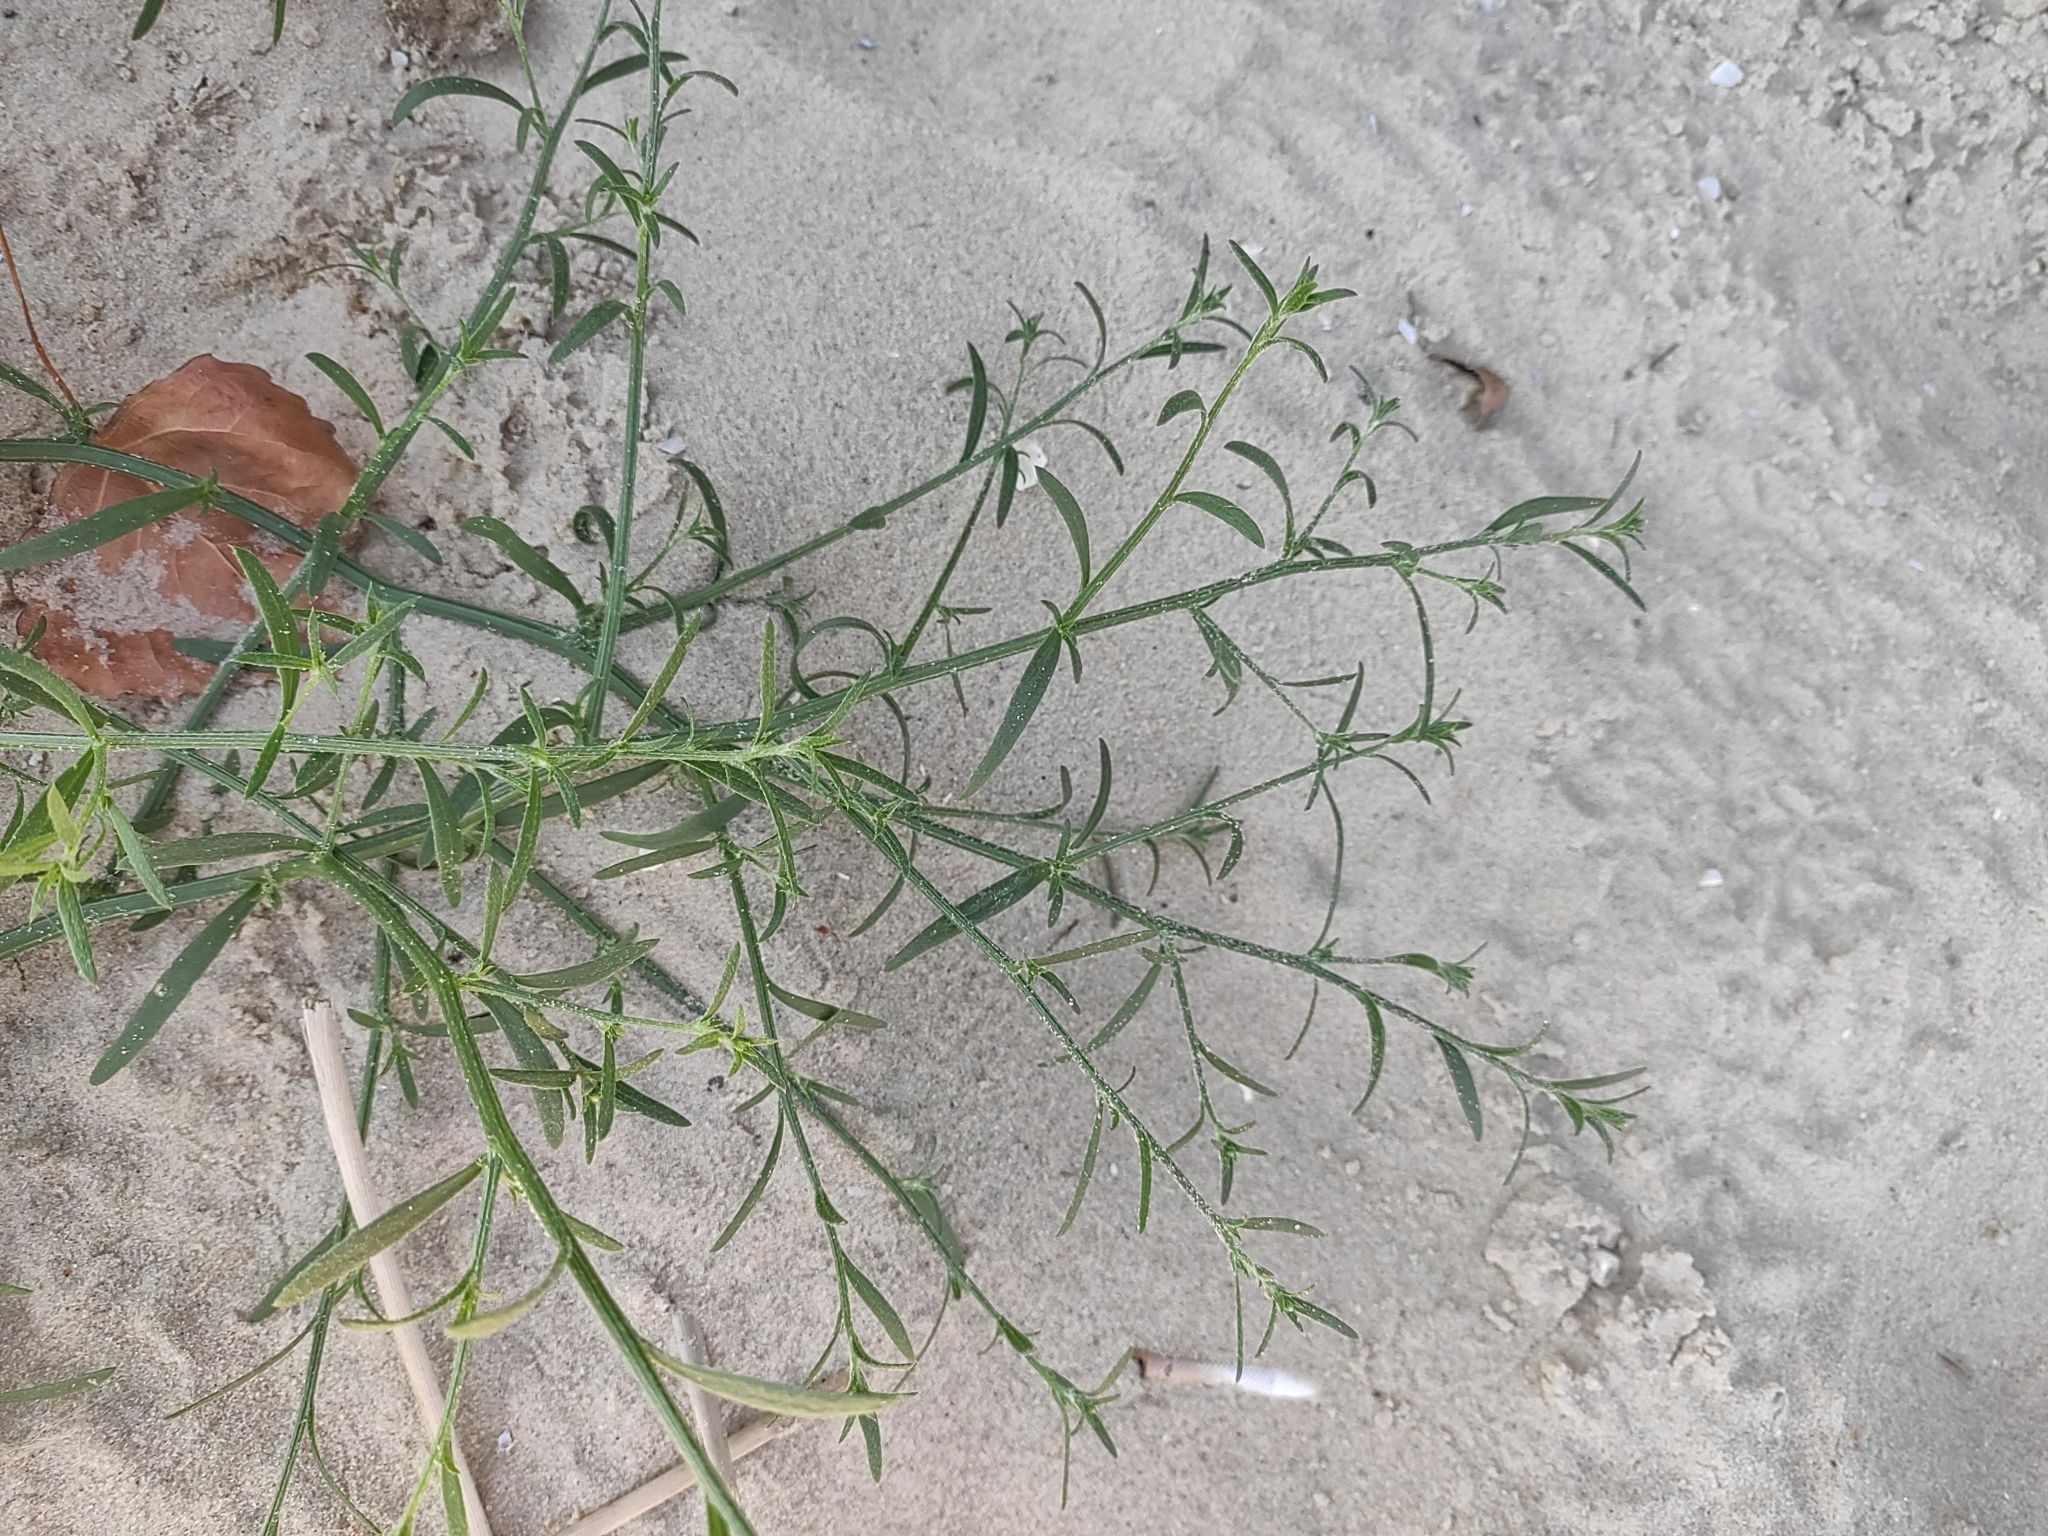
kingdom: Plantae
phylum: Tracheophyta
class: Magnoliopsida
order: Caryophyllales
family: Amaranthaceae
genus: Corispermum
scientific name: Corispermum hyssopifolium
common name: Bugseed
